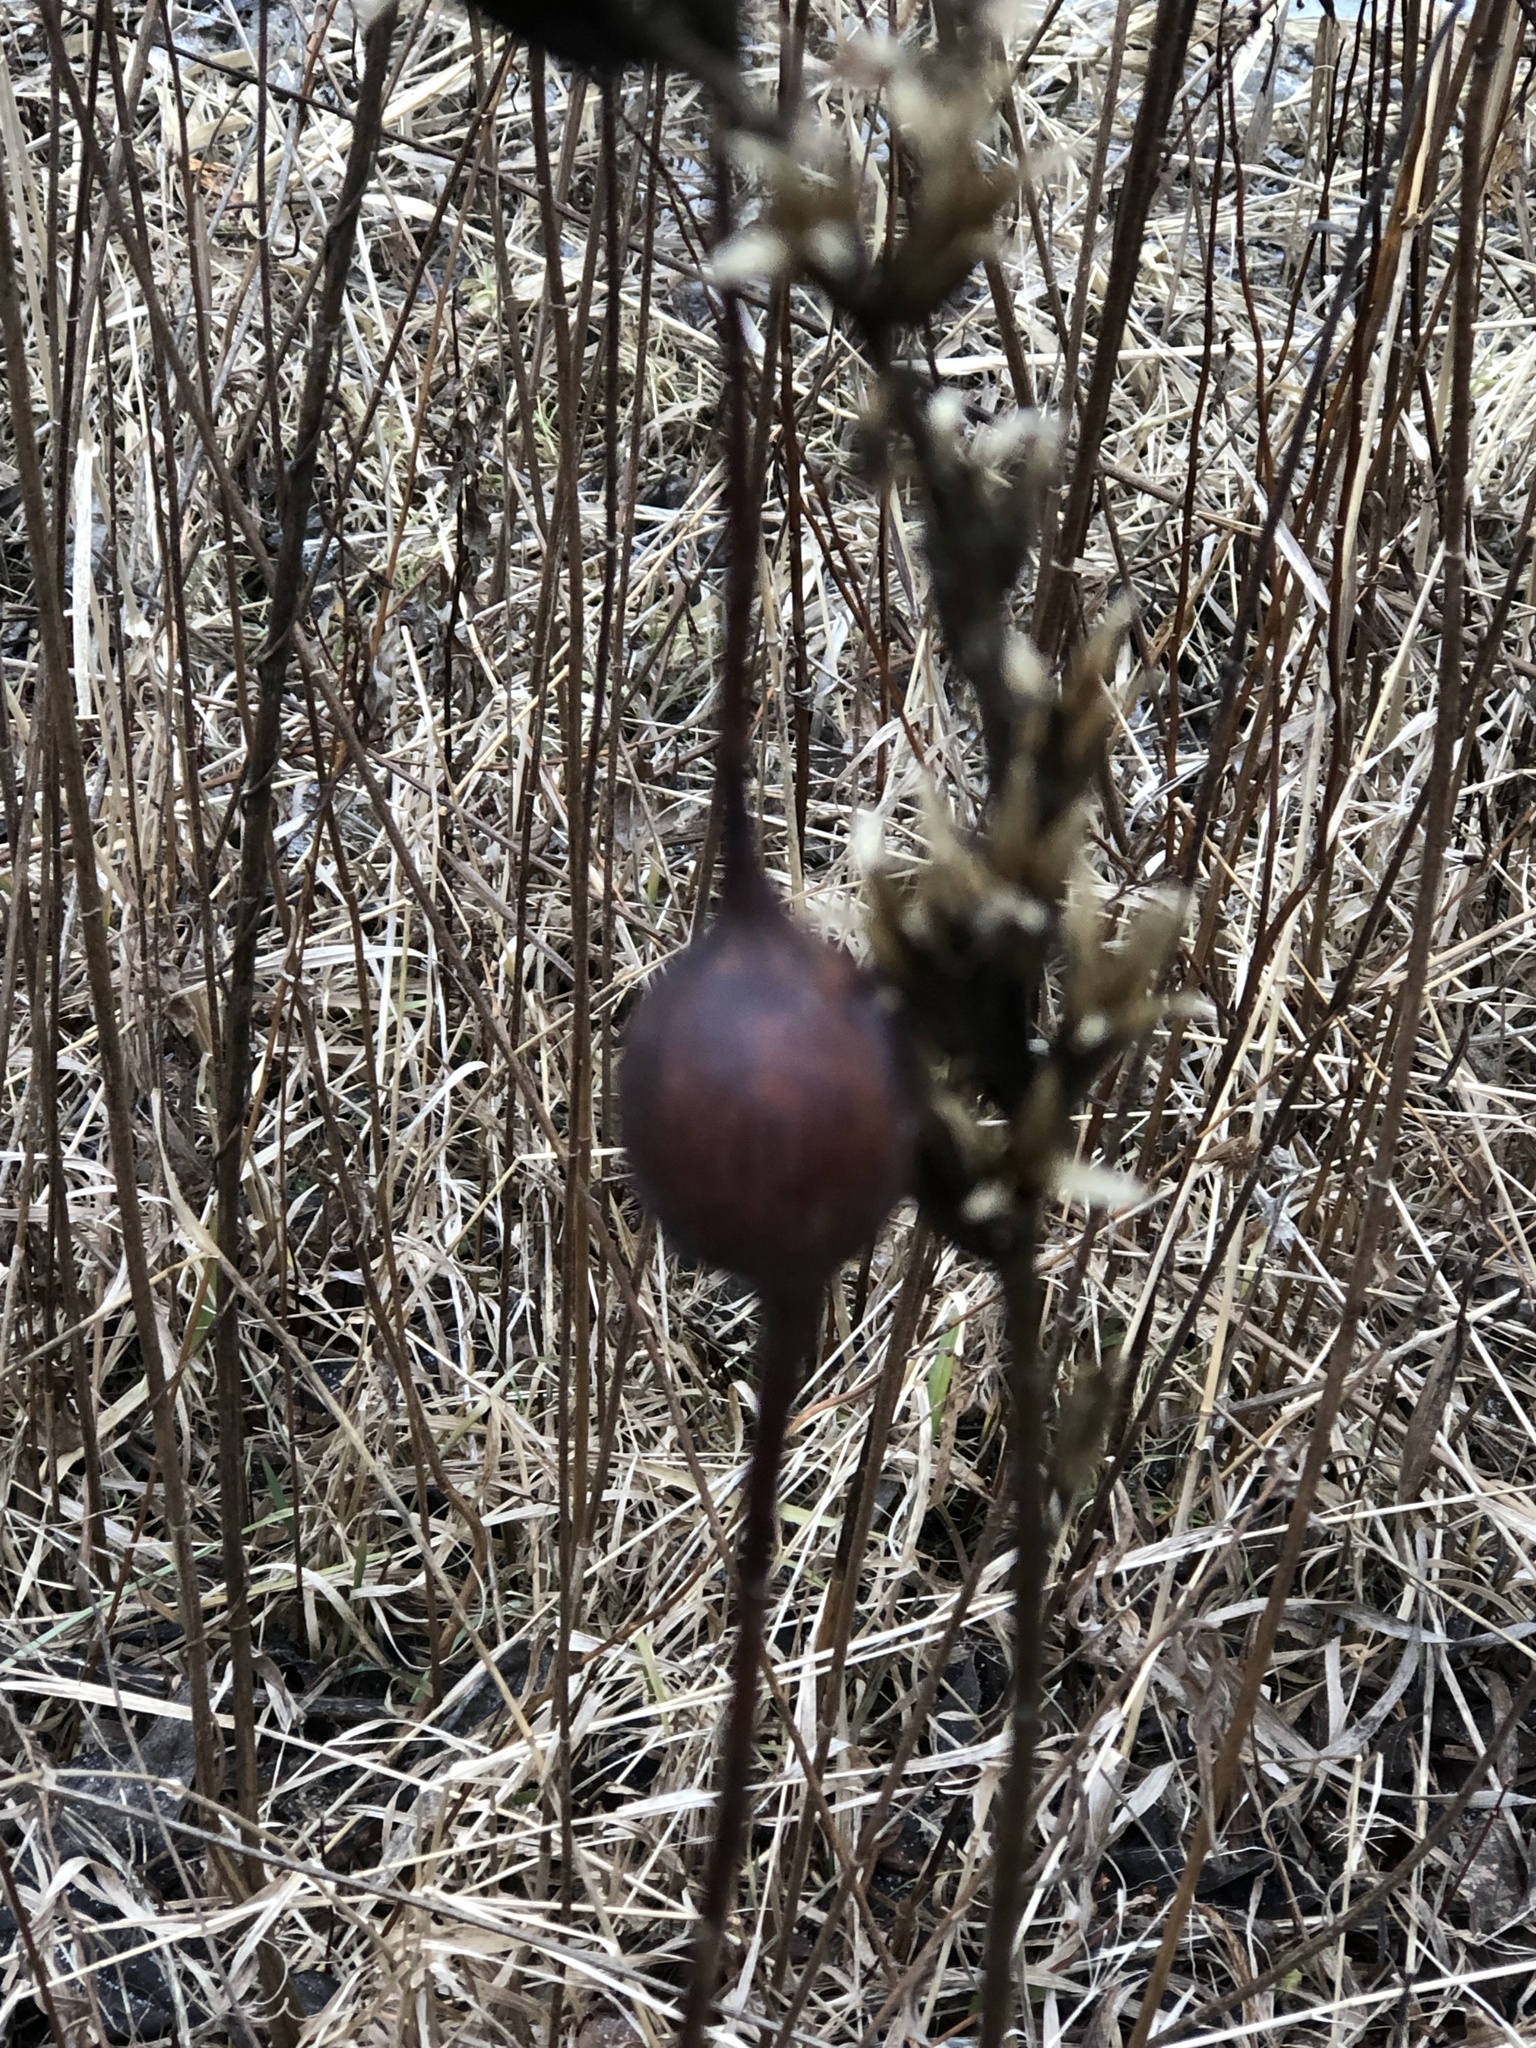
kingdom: Animalia
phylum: Arthropoda
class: Insecta
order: Diptera
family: Tephritidae
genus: Eurosta
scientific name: Eurosta solidaginis
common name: Goldenrod gall fly
